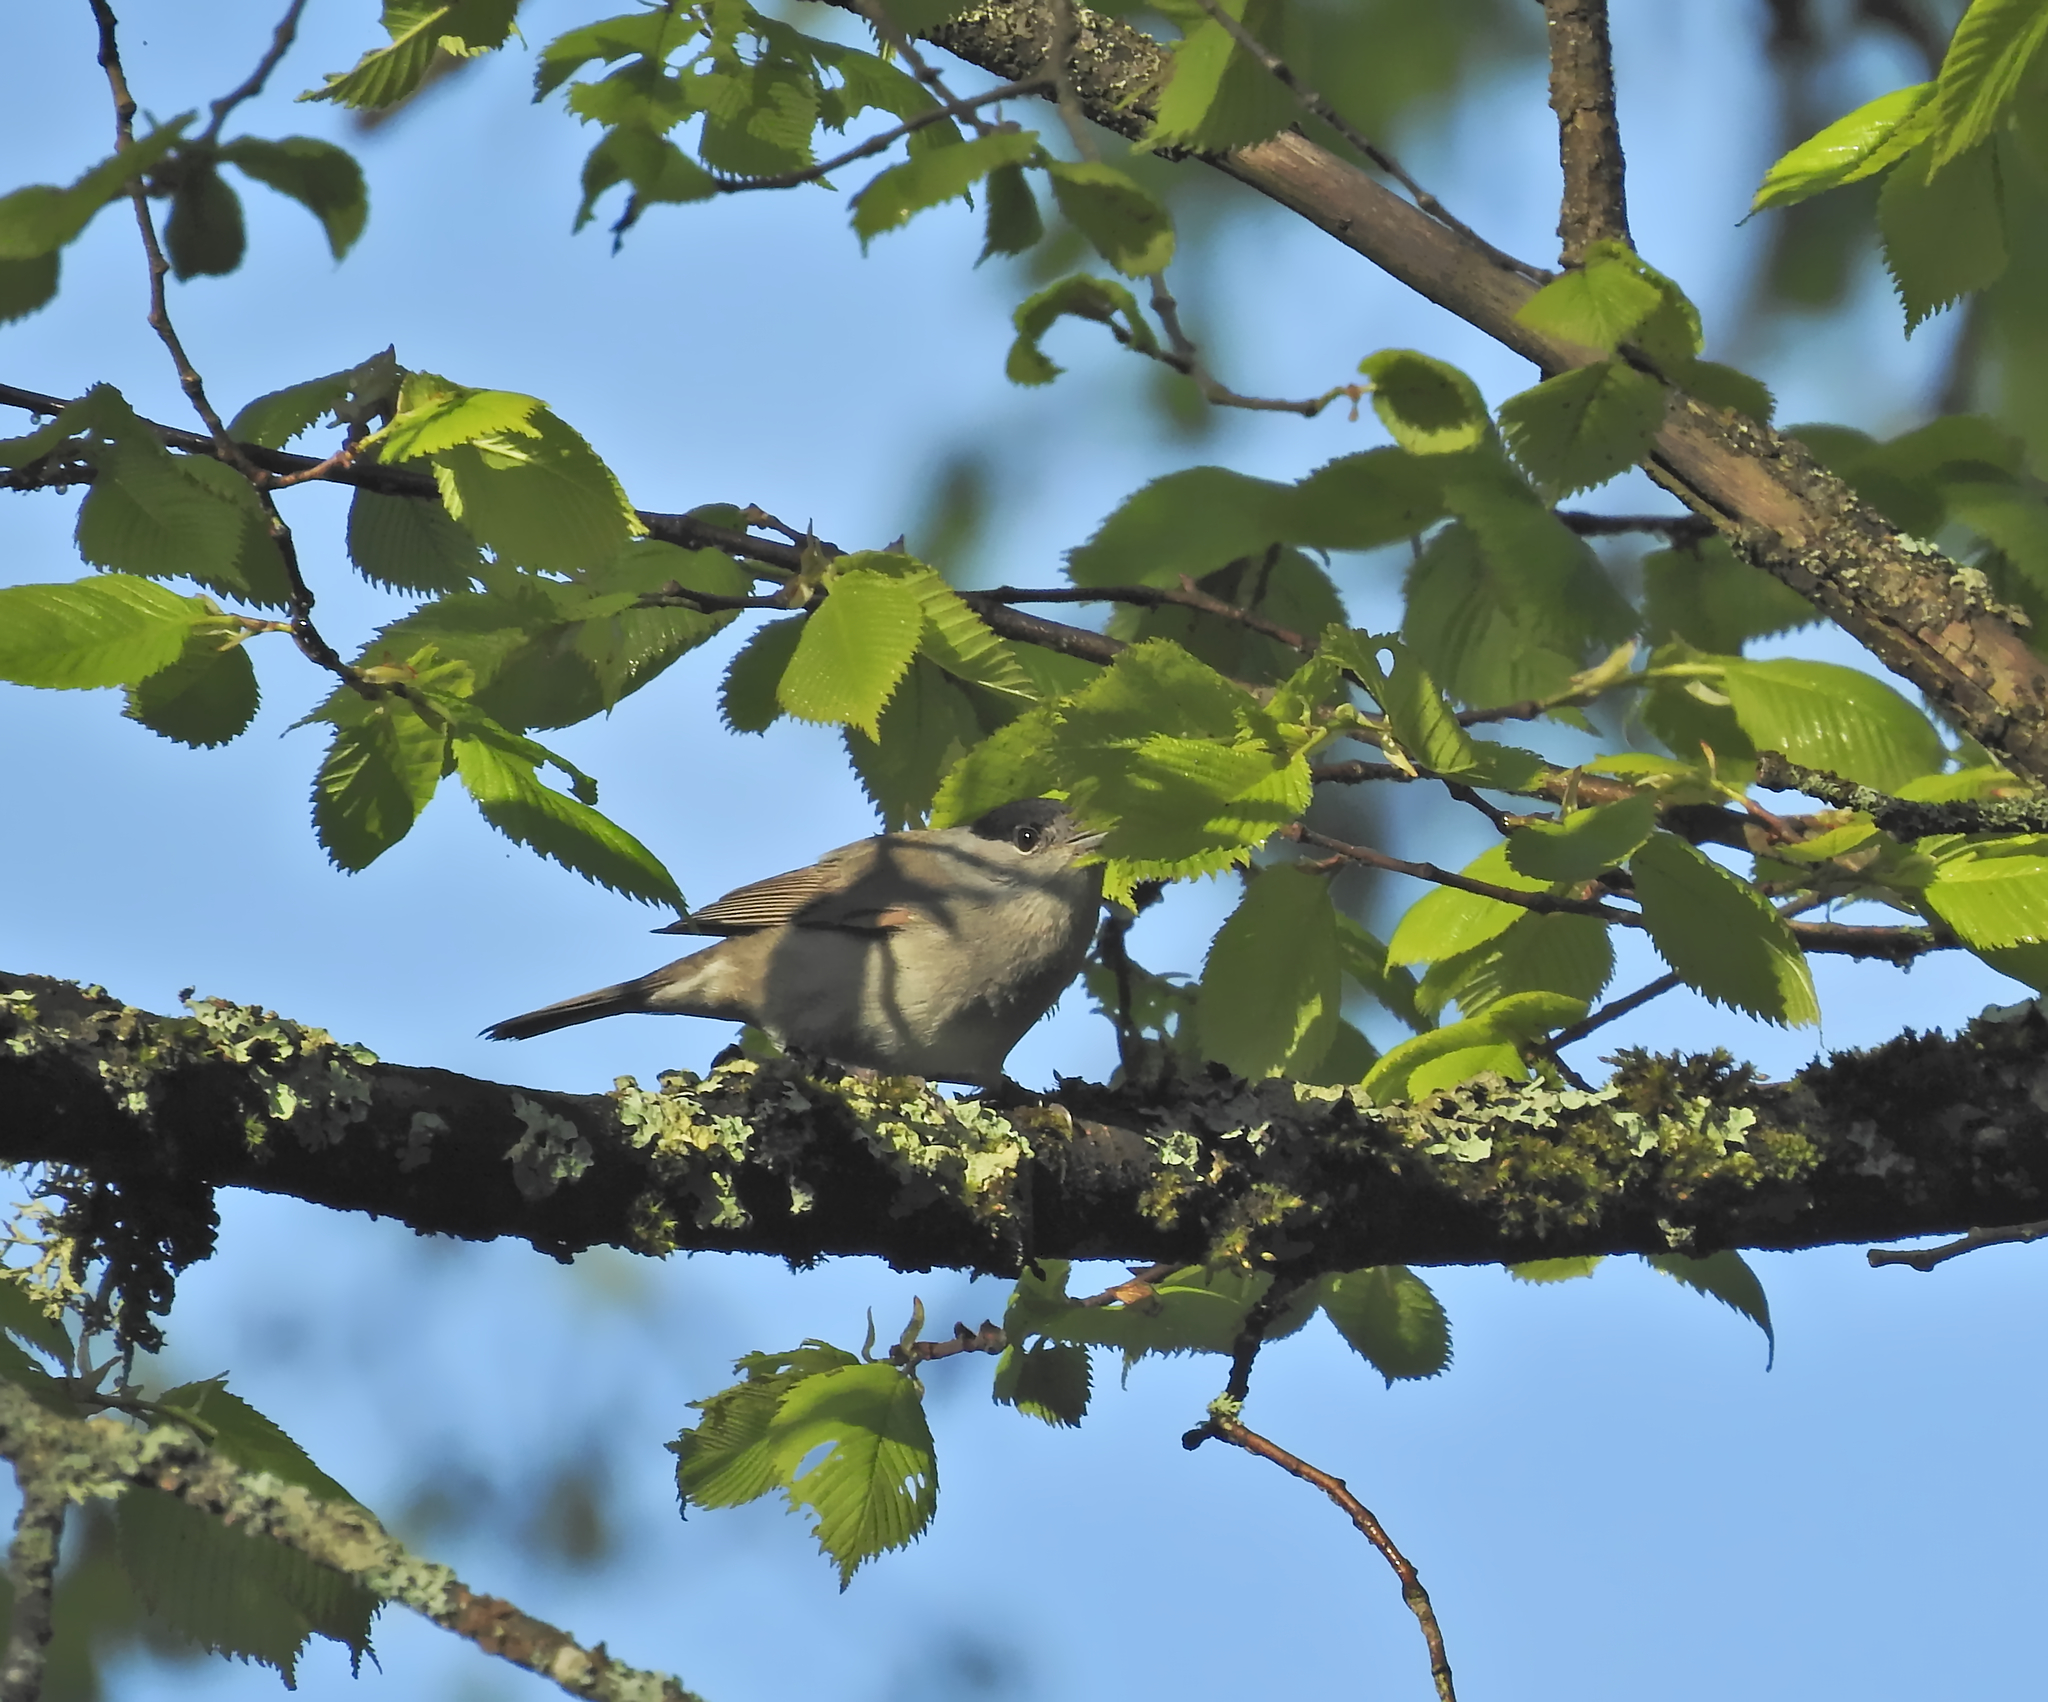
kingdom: Animalia
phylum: Chordata
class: Aves
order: Passeriformes
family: Sylviidae
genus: Sylvia
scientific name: Sylvia atricapilla
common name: Eurasian blackcap
